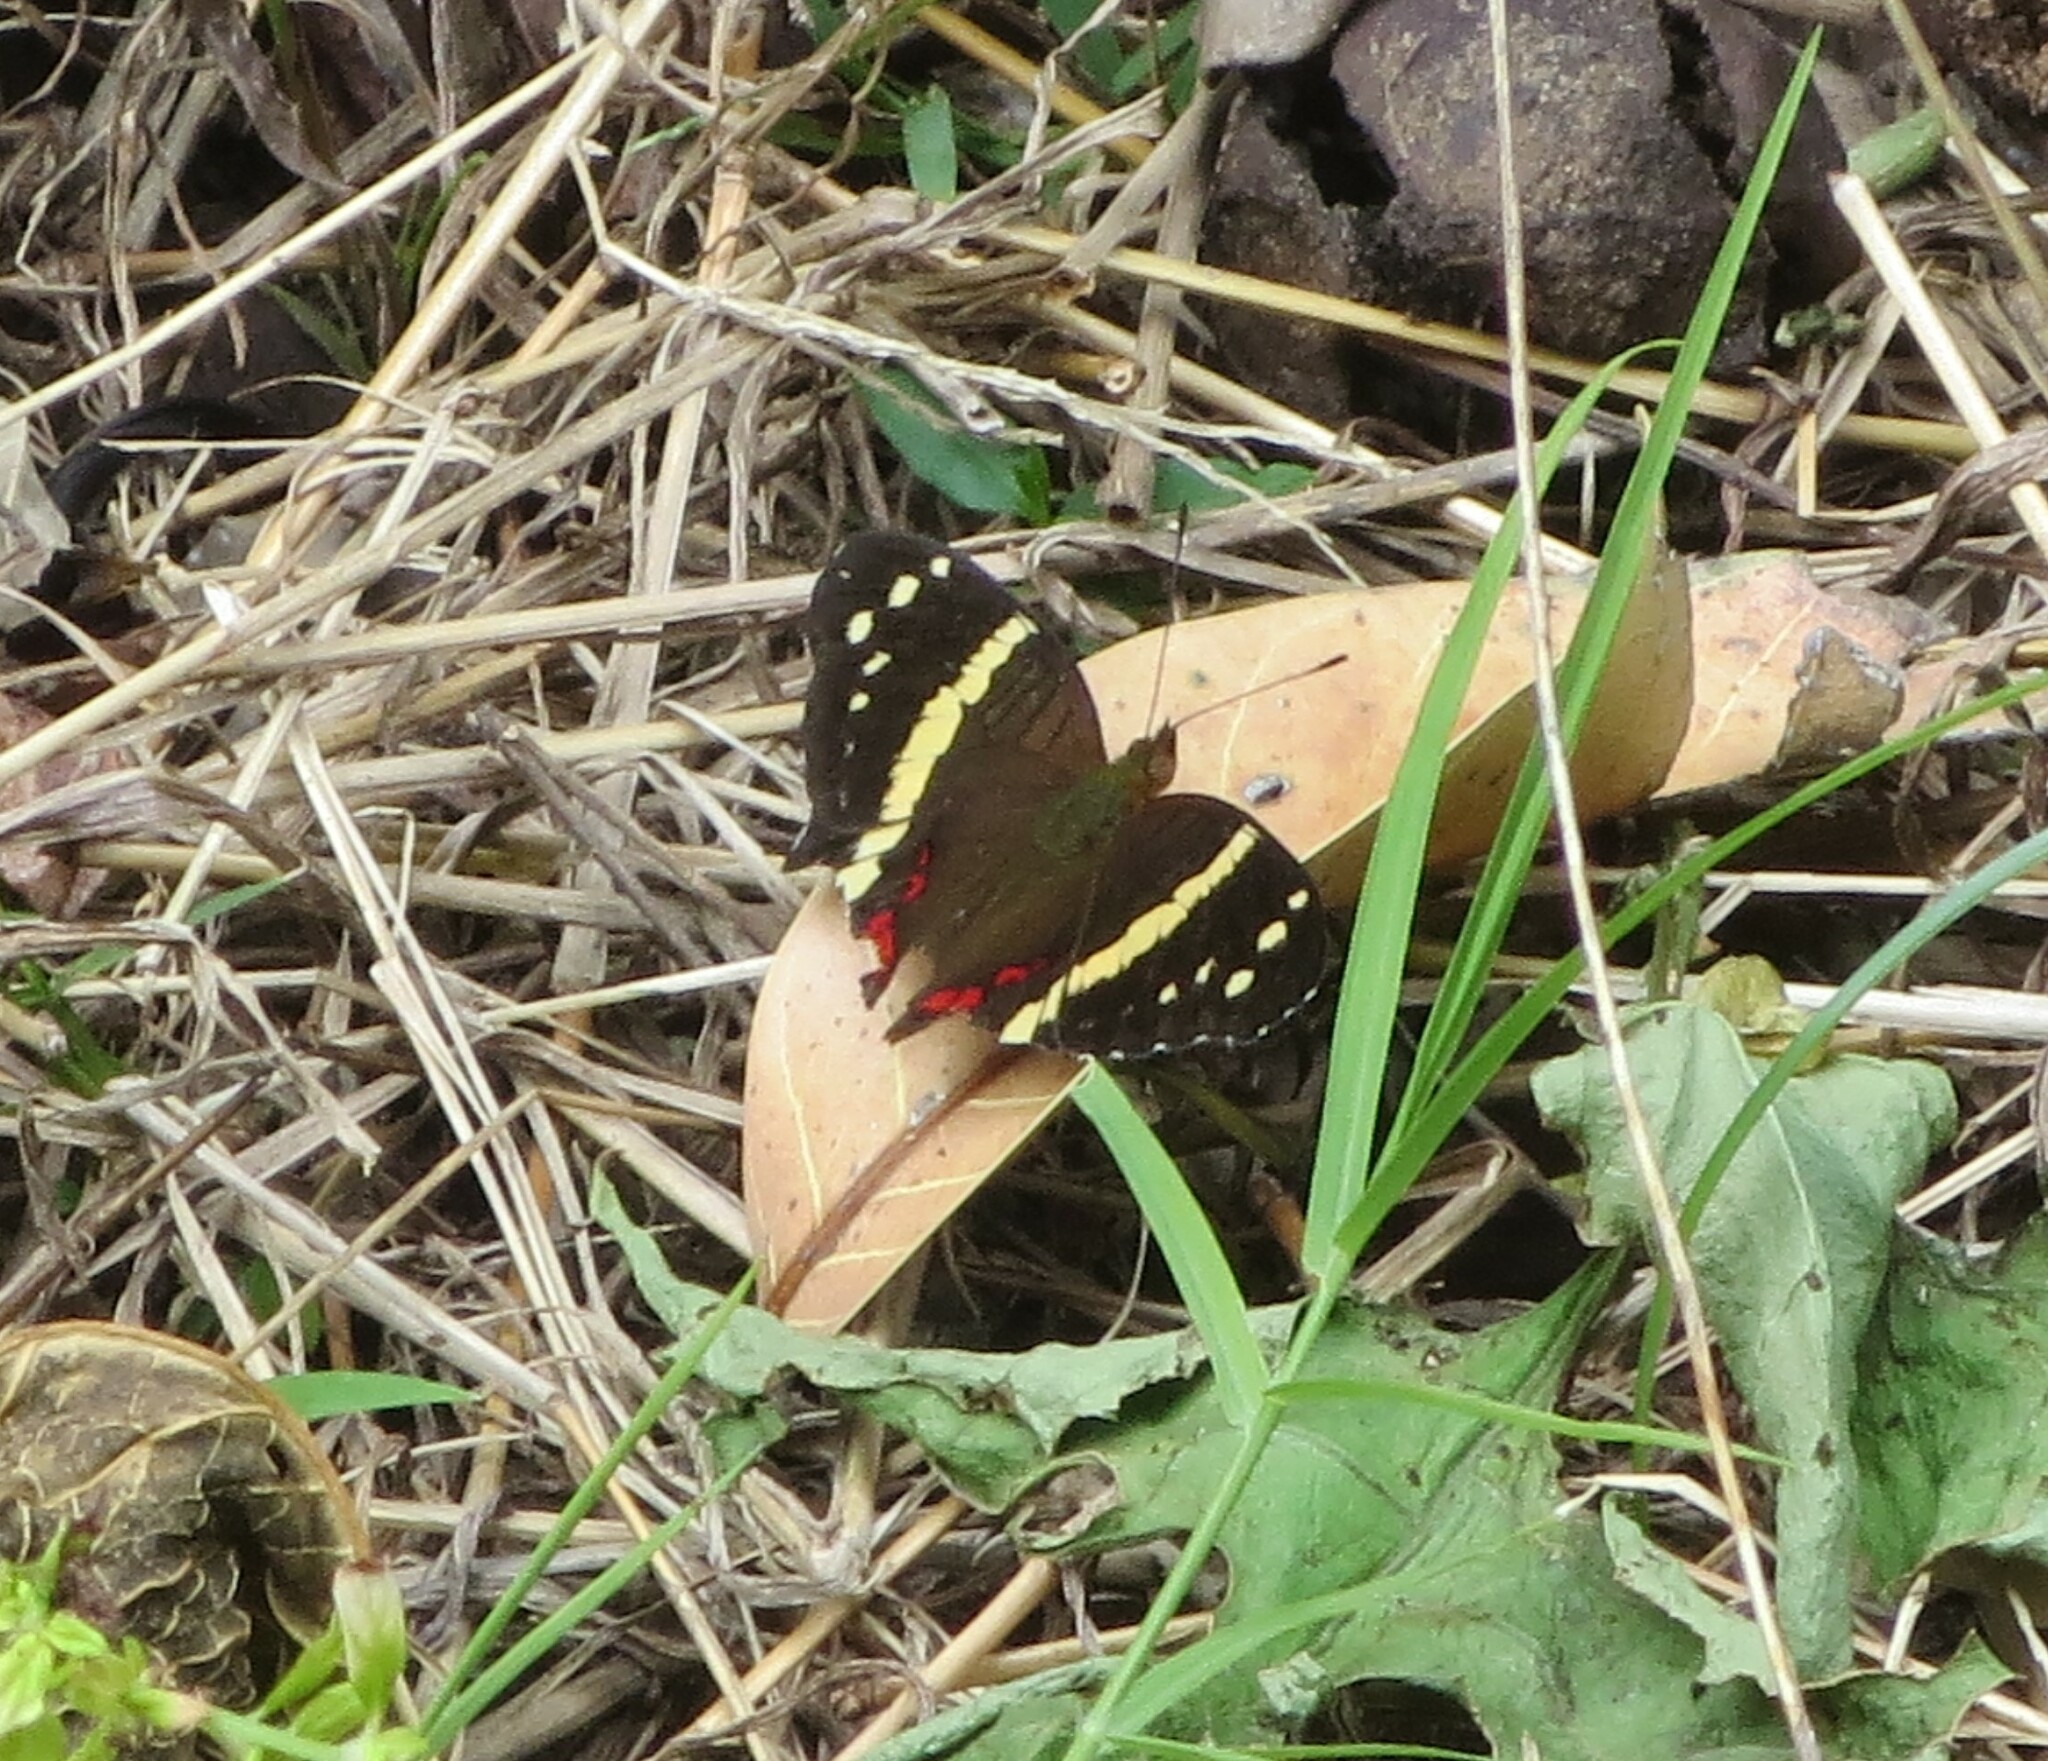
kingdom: Animalia
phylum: Arthropoda
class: Insecta
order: Lepidoptera
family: Nymphalidae
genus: Anartia
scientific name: Anartia fatima
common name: Banded peacock
